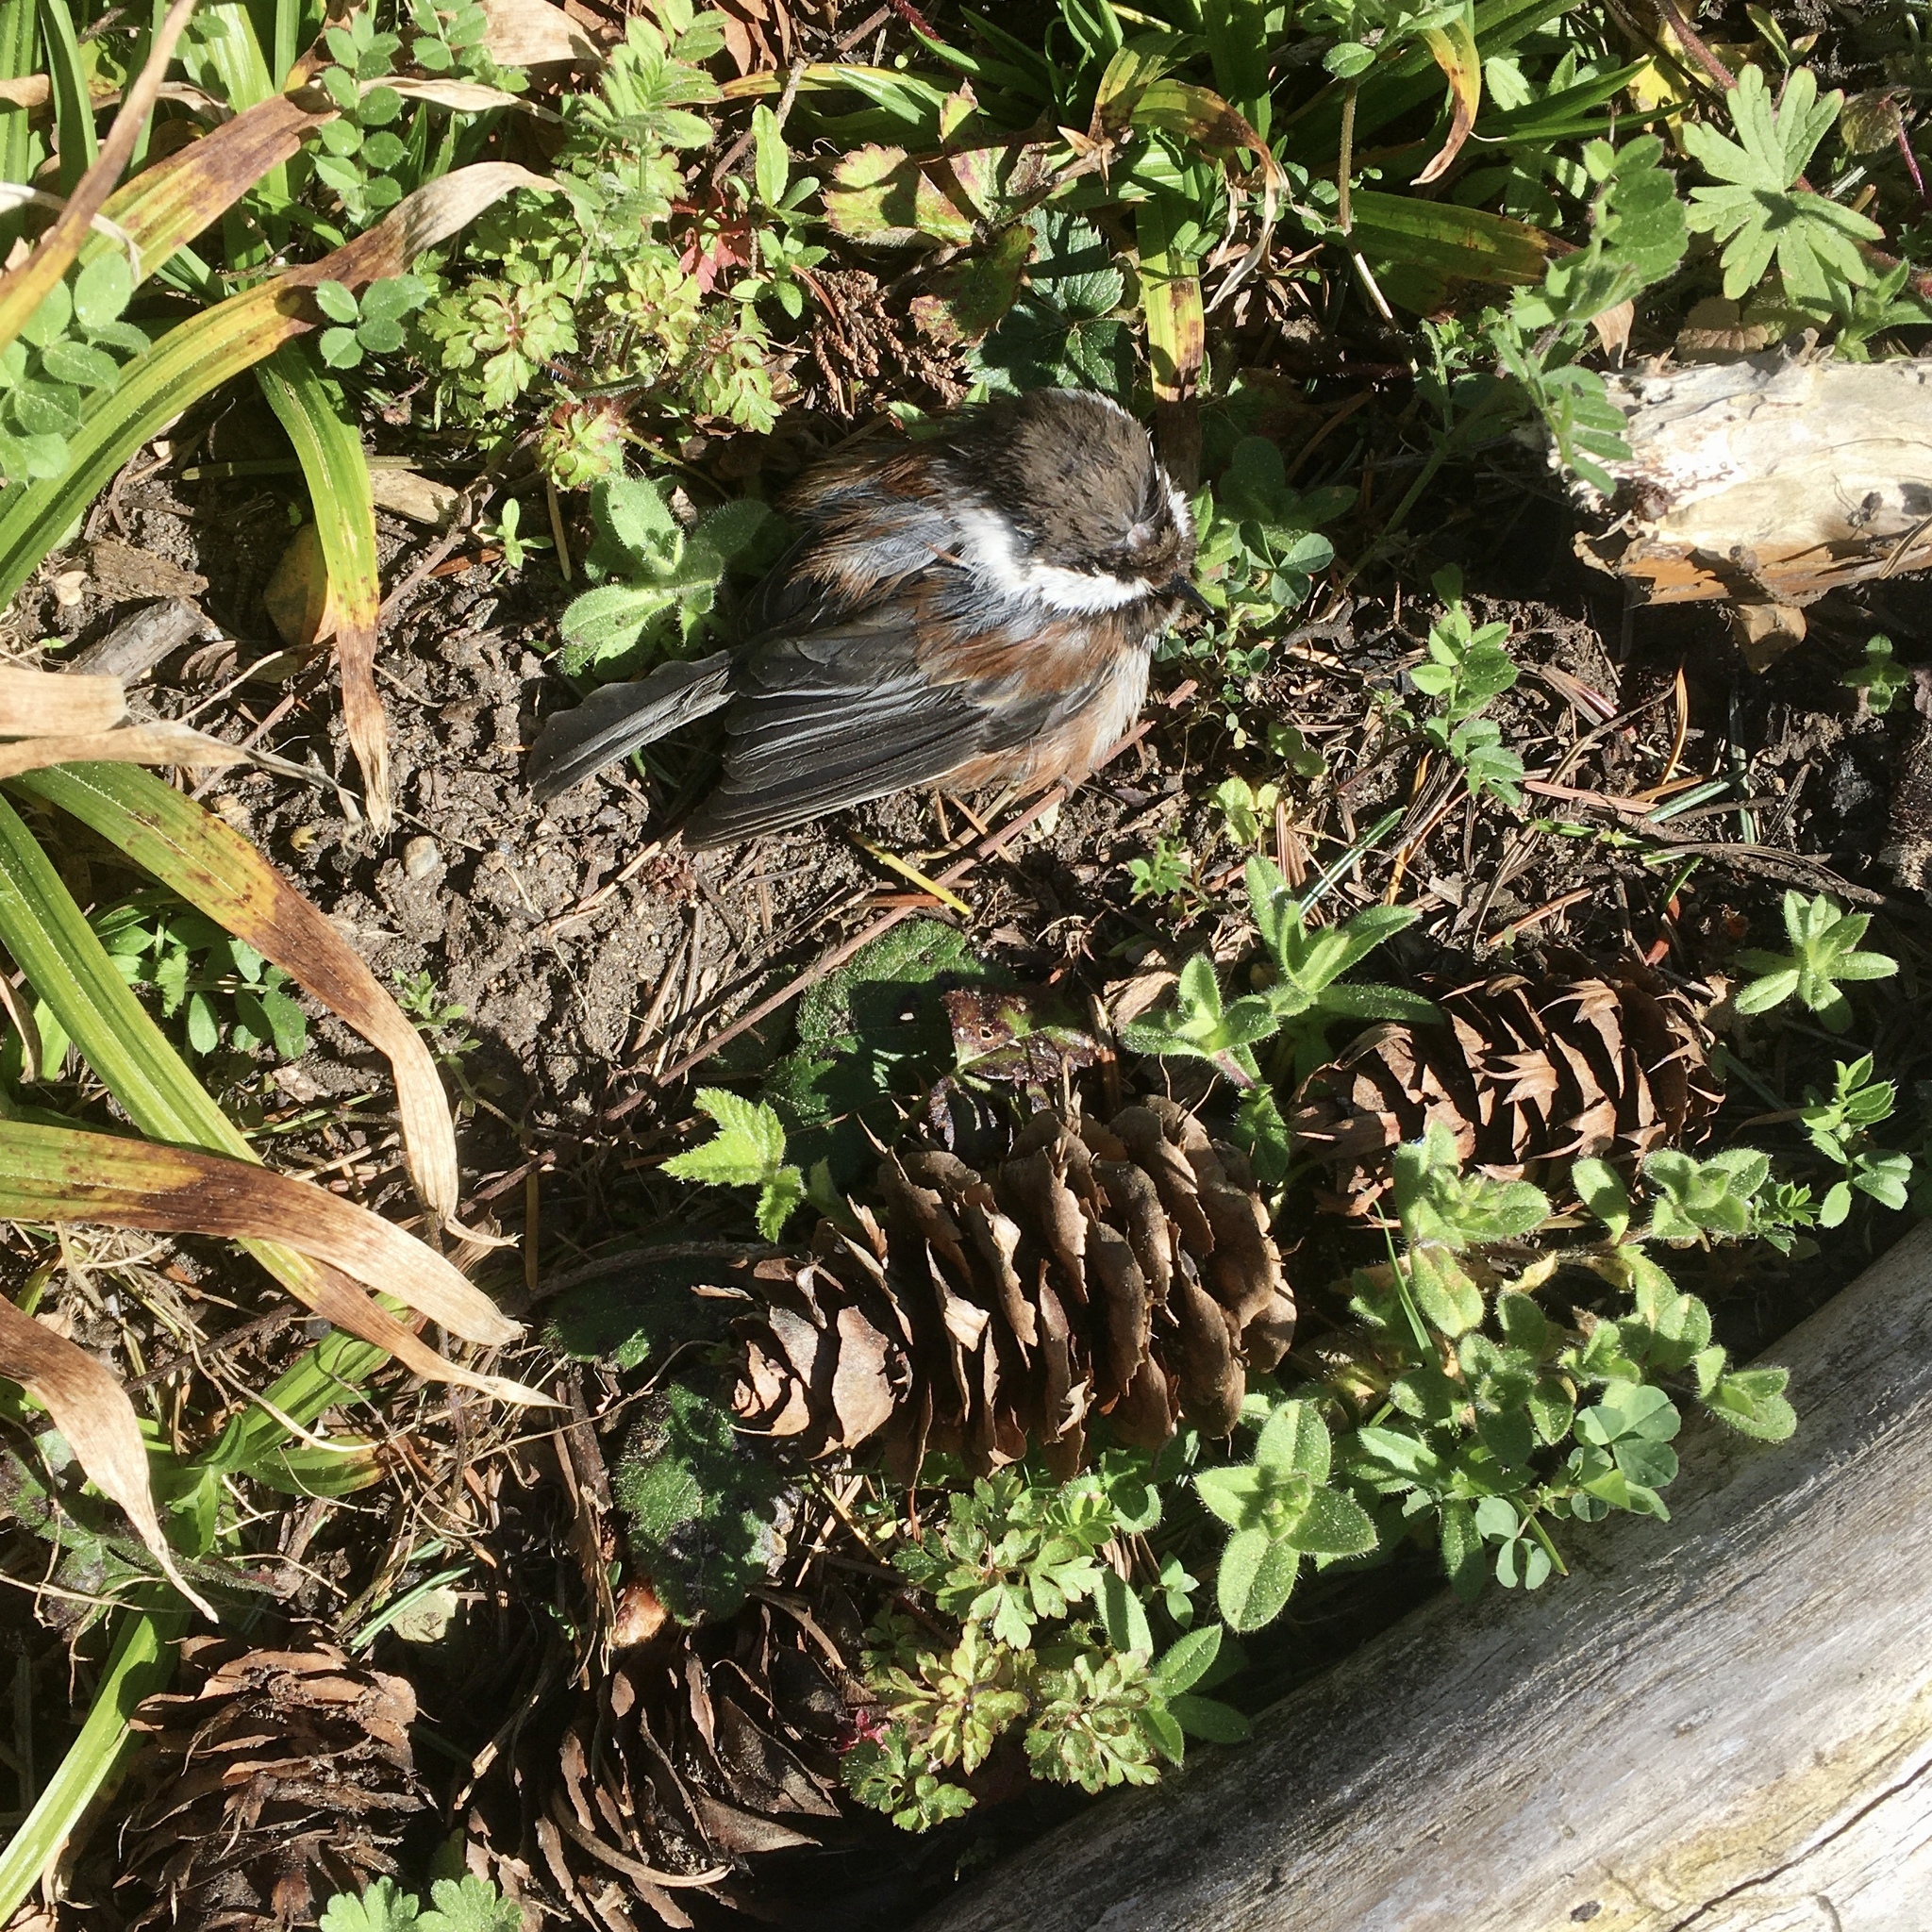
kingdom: Animalia
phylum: Chordata
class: Aves
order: Passeriformes
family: Paridae
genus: Poecile
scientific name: Poecile rufescens
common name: Chestnut-backed chickadee
